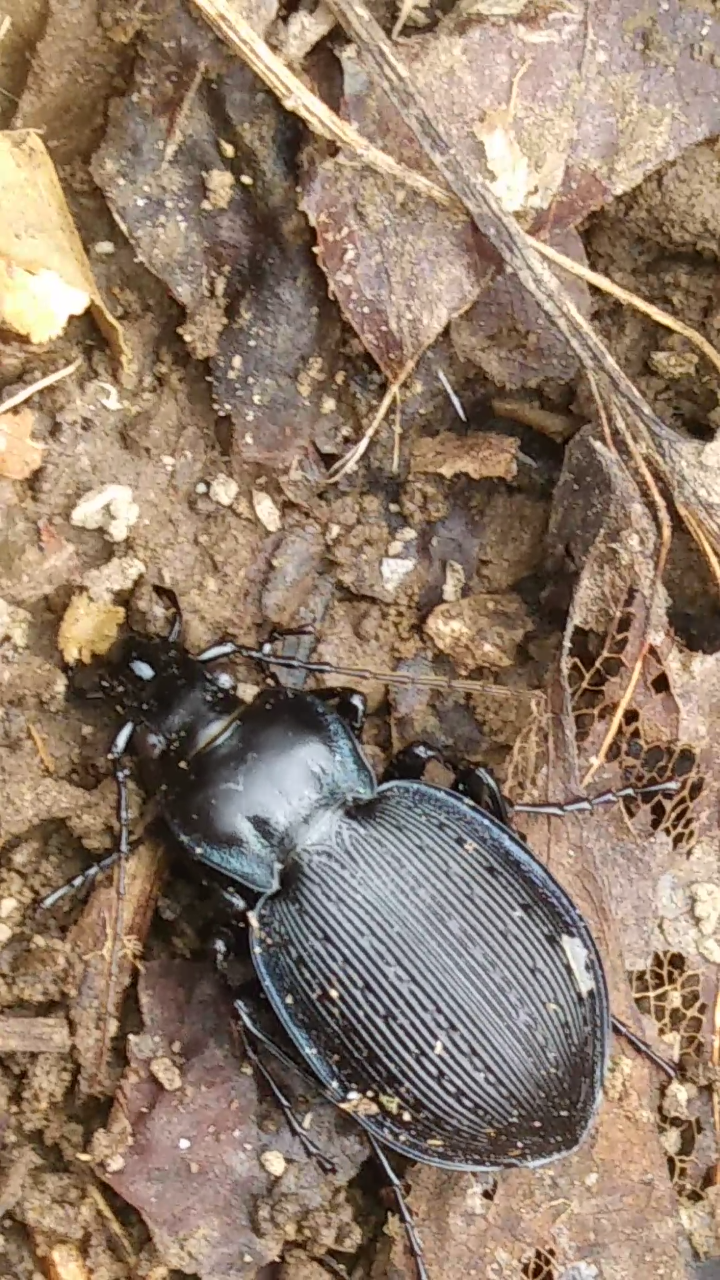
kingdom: Animalia
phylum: Arthropoda
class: Insecta
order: Coleoptera
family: Carabidae
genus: Carabus
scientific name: Carabus goryi
